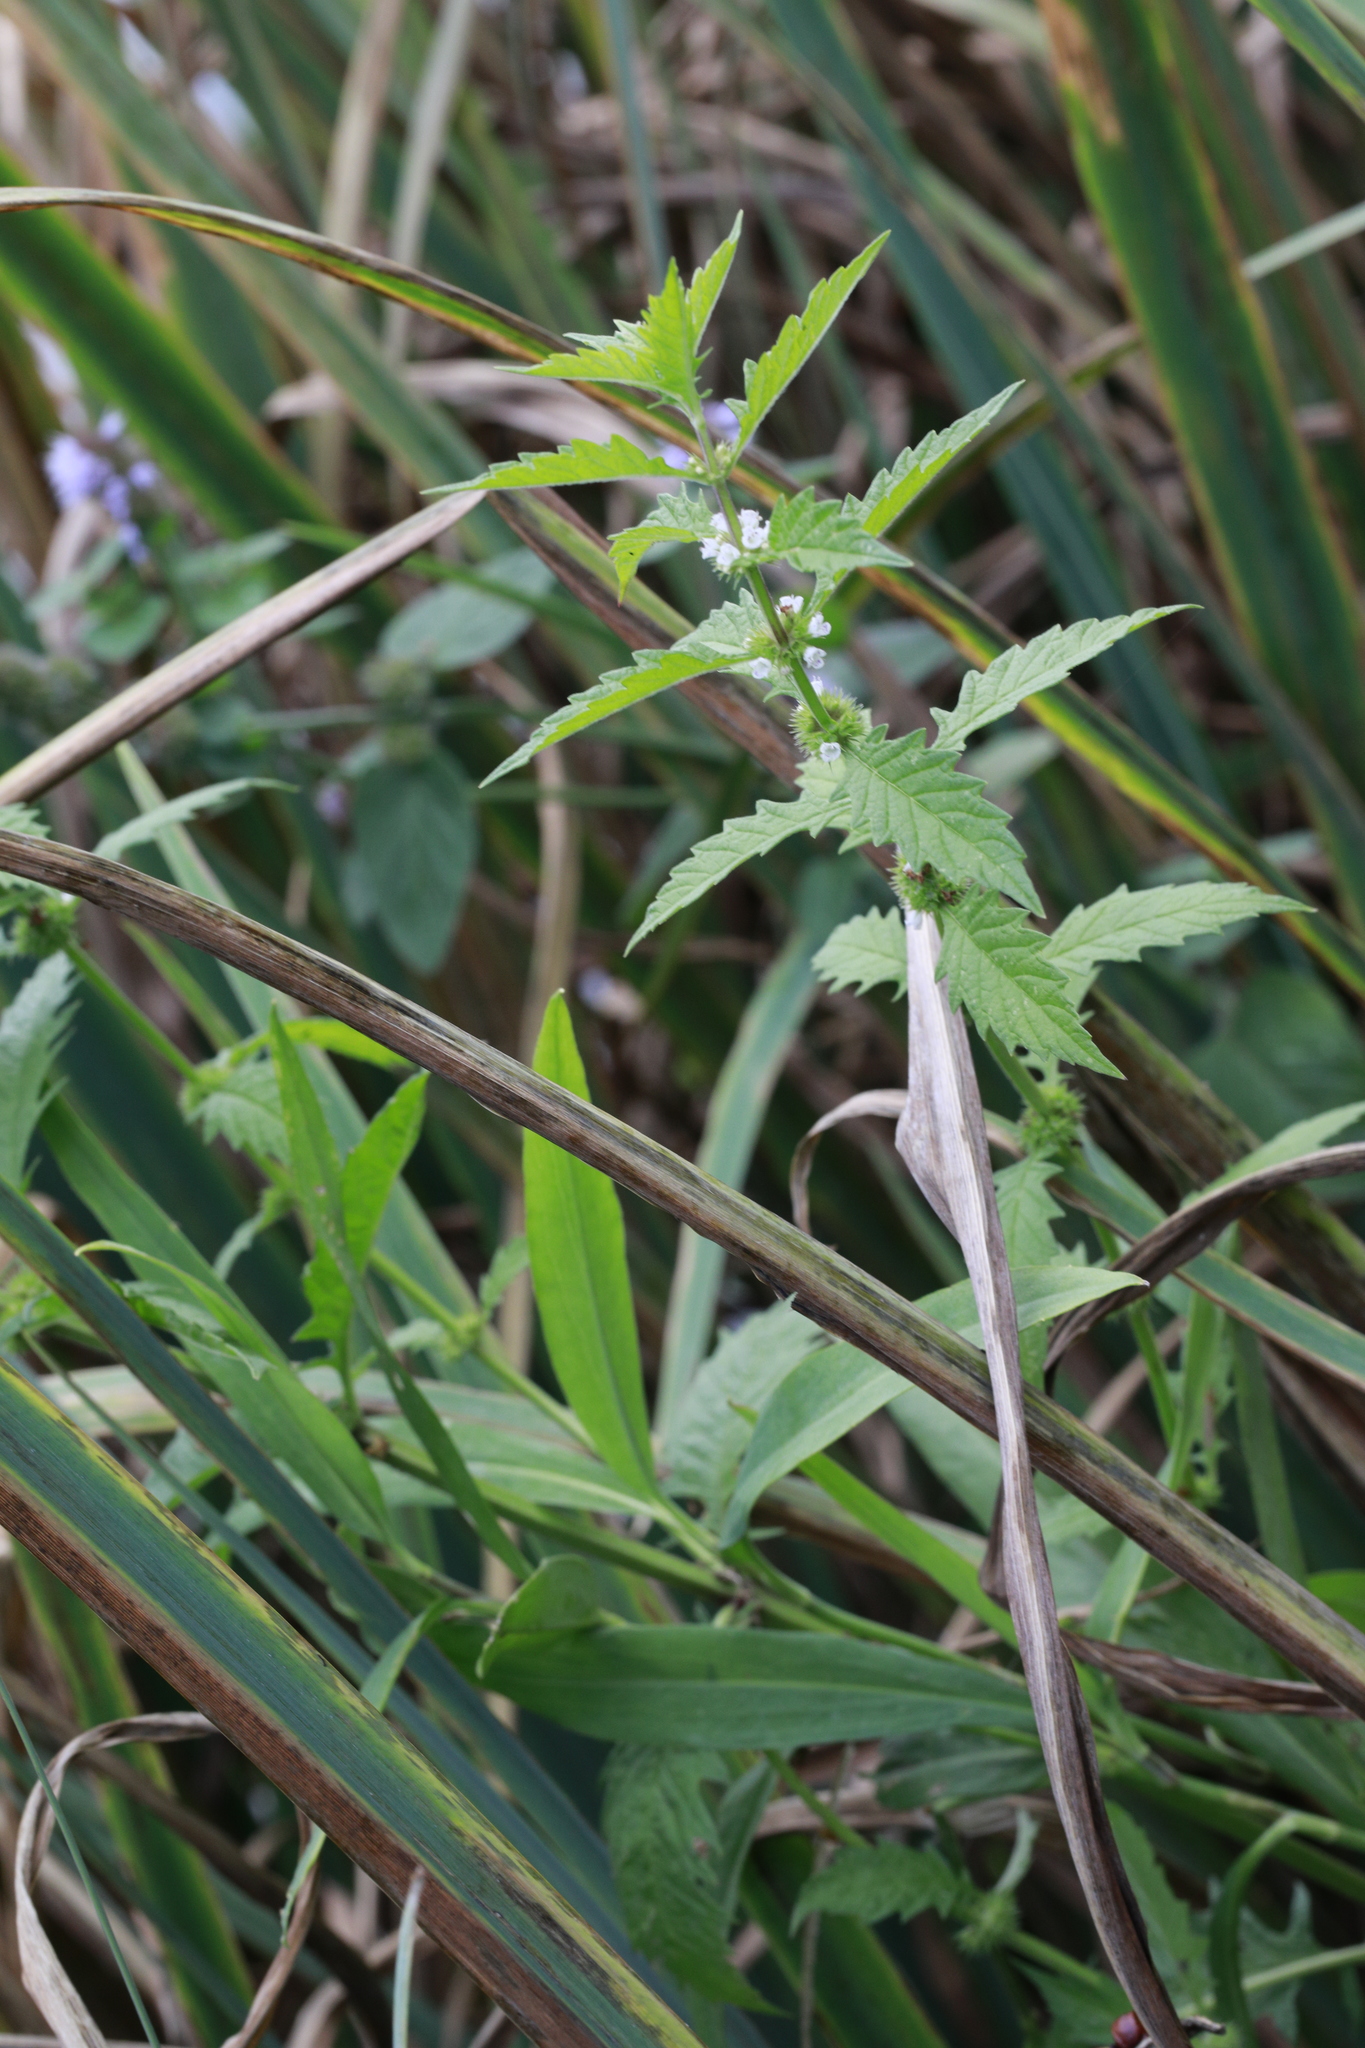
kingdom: Plantae
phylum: Tracheophyta
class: Magnoliopsida
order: Lamiales
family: Lamiaceae
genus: Lycopus
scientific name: Lycopus europaeus
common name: European bugleweed
